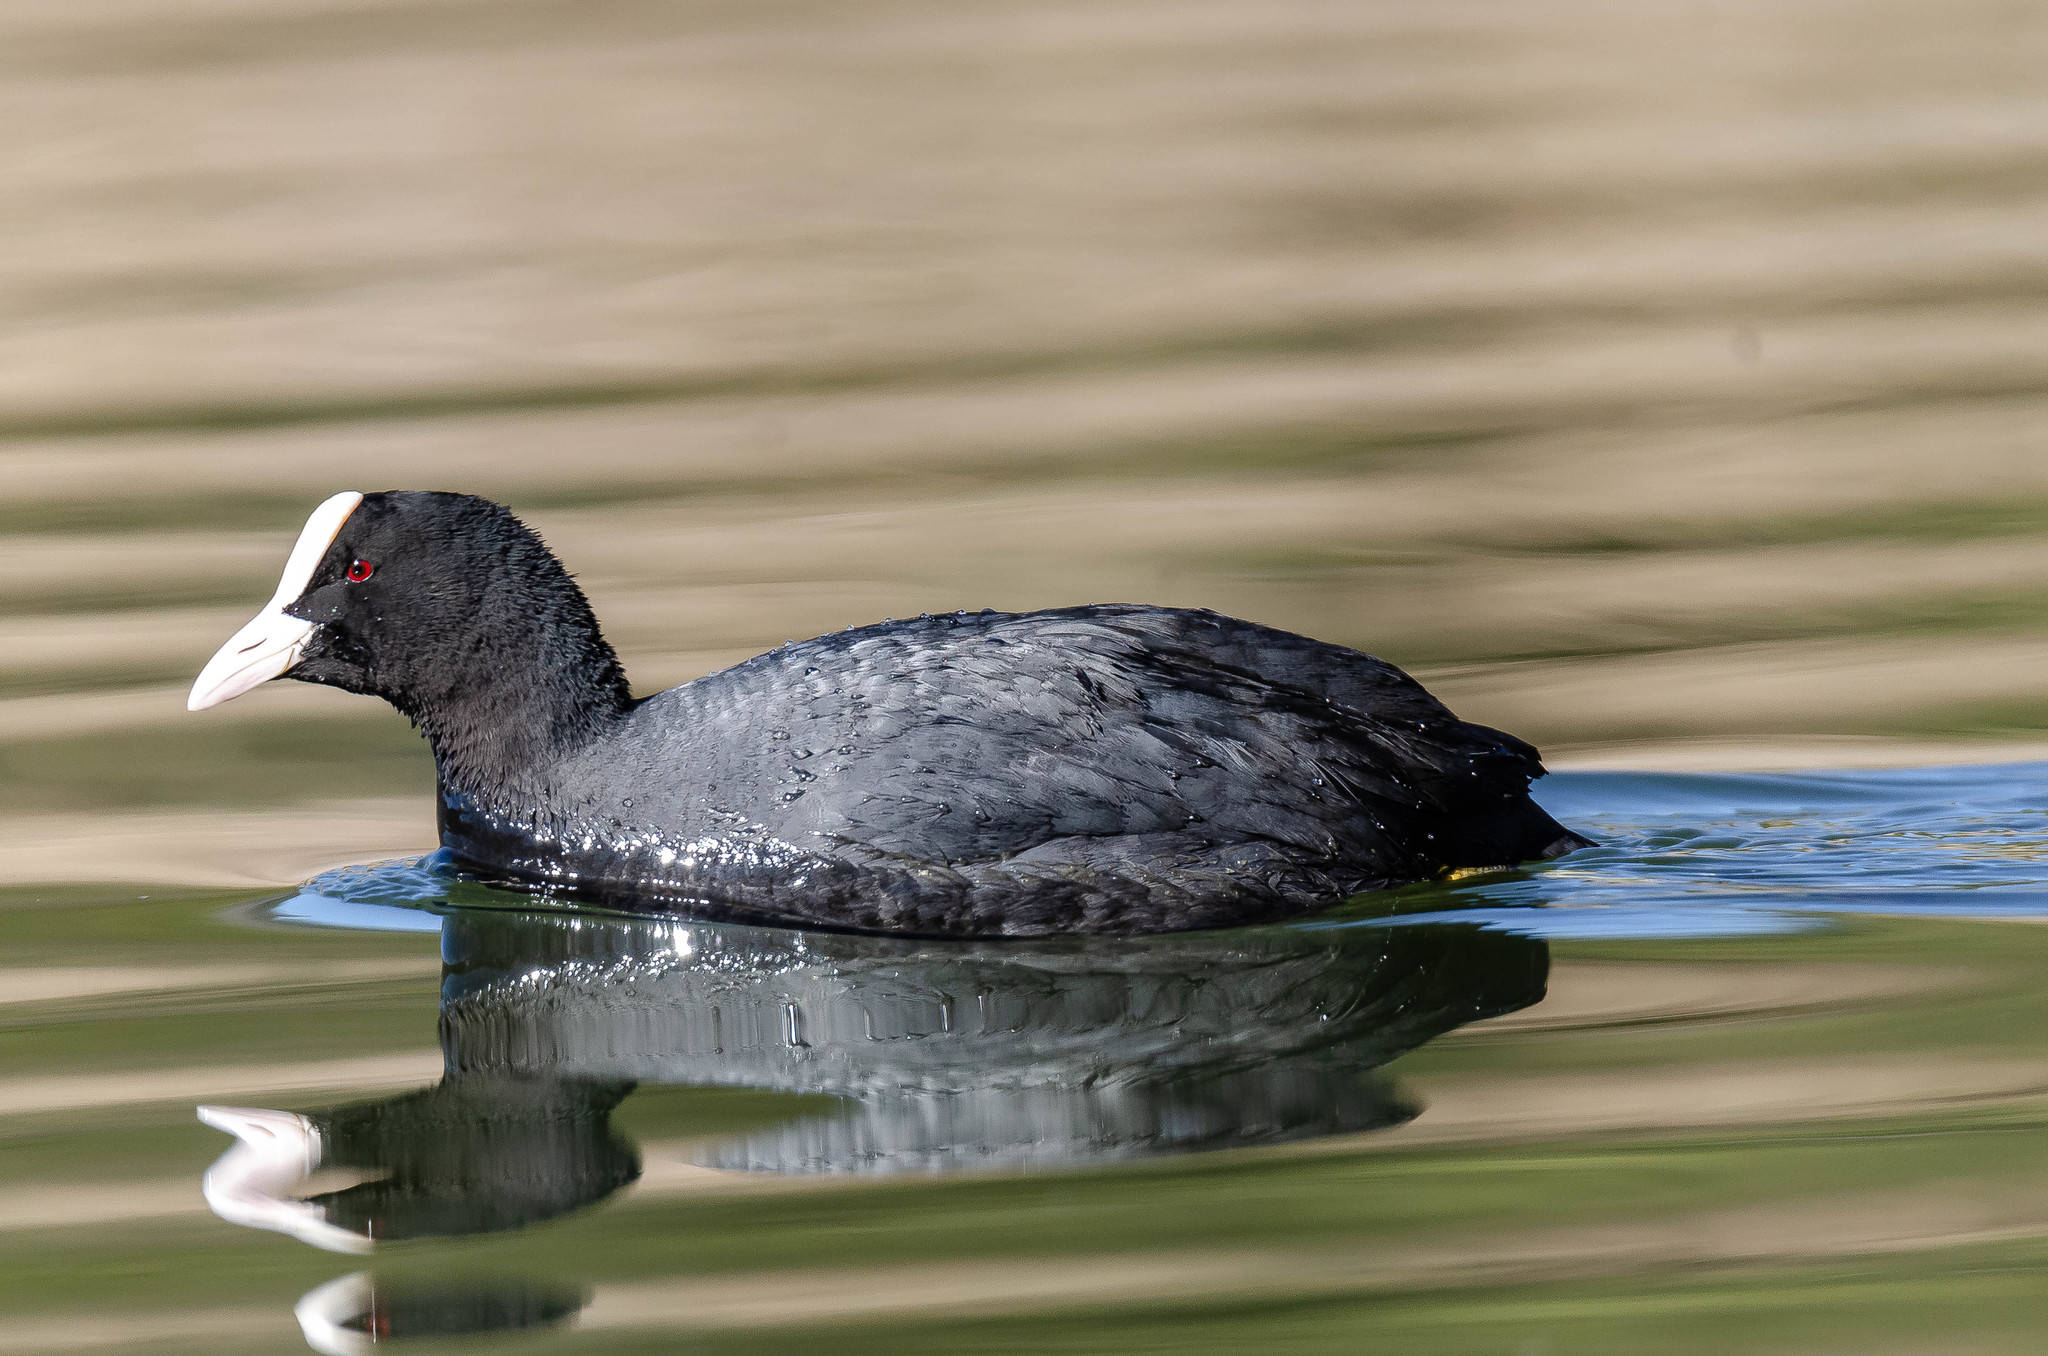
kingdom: Animalia
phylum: Chordata
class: Aves
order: Gruiformes
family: Rallidae
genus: Fulica
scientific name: Fulica atra
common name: Eurasian coot
